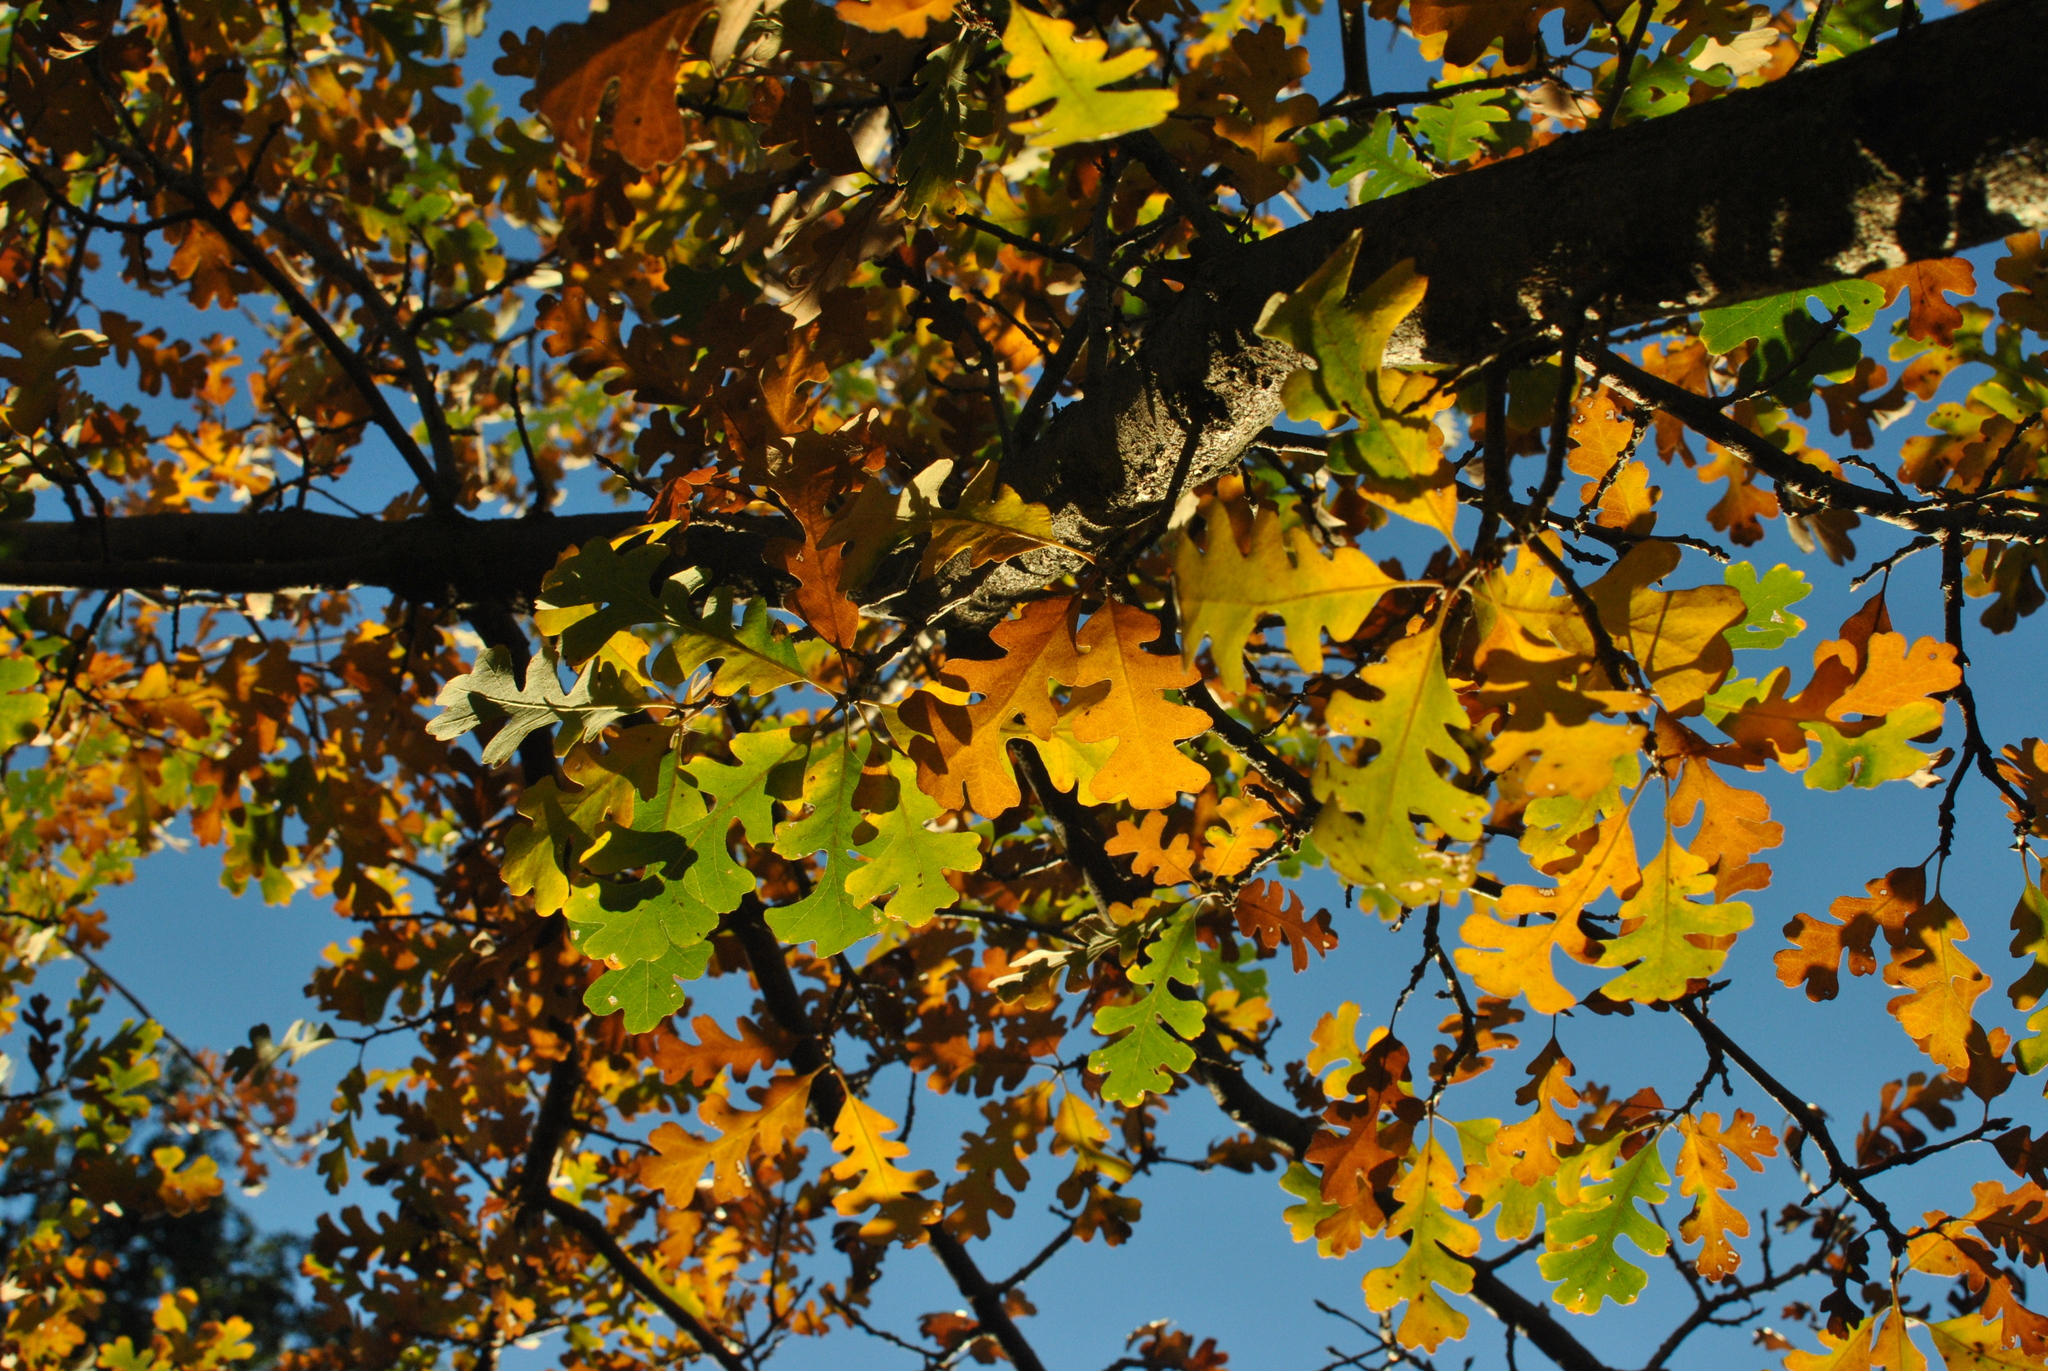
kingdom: Plantae
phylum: Tracheophyta
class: Magnoliopsida
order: Fagales
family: Fagaceae
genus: Quercus
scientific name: Quercus lobata
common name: Valley oak
